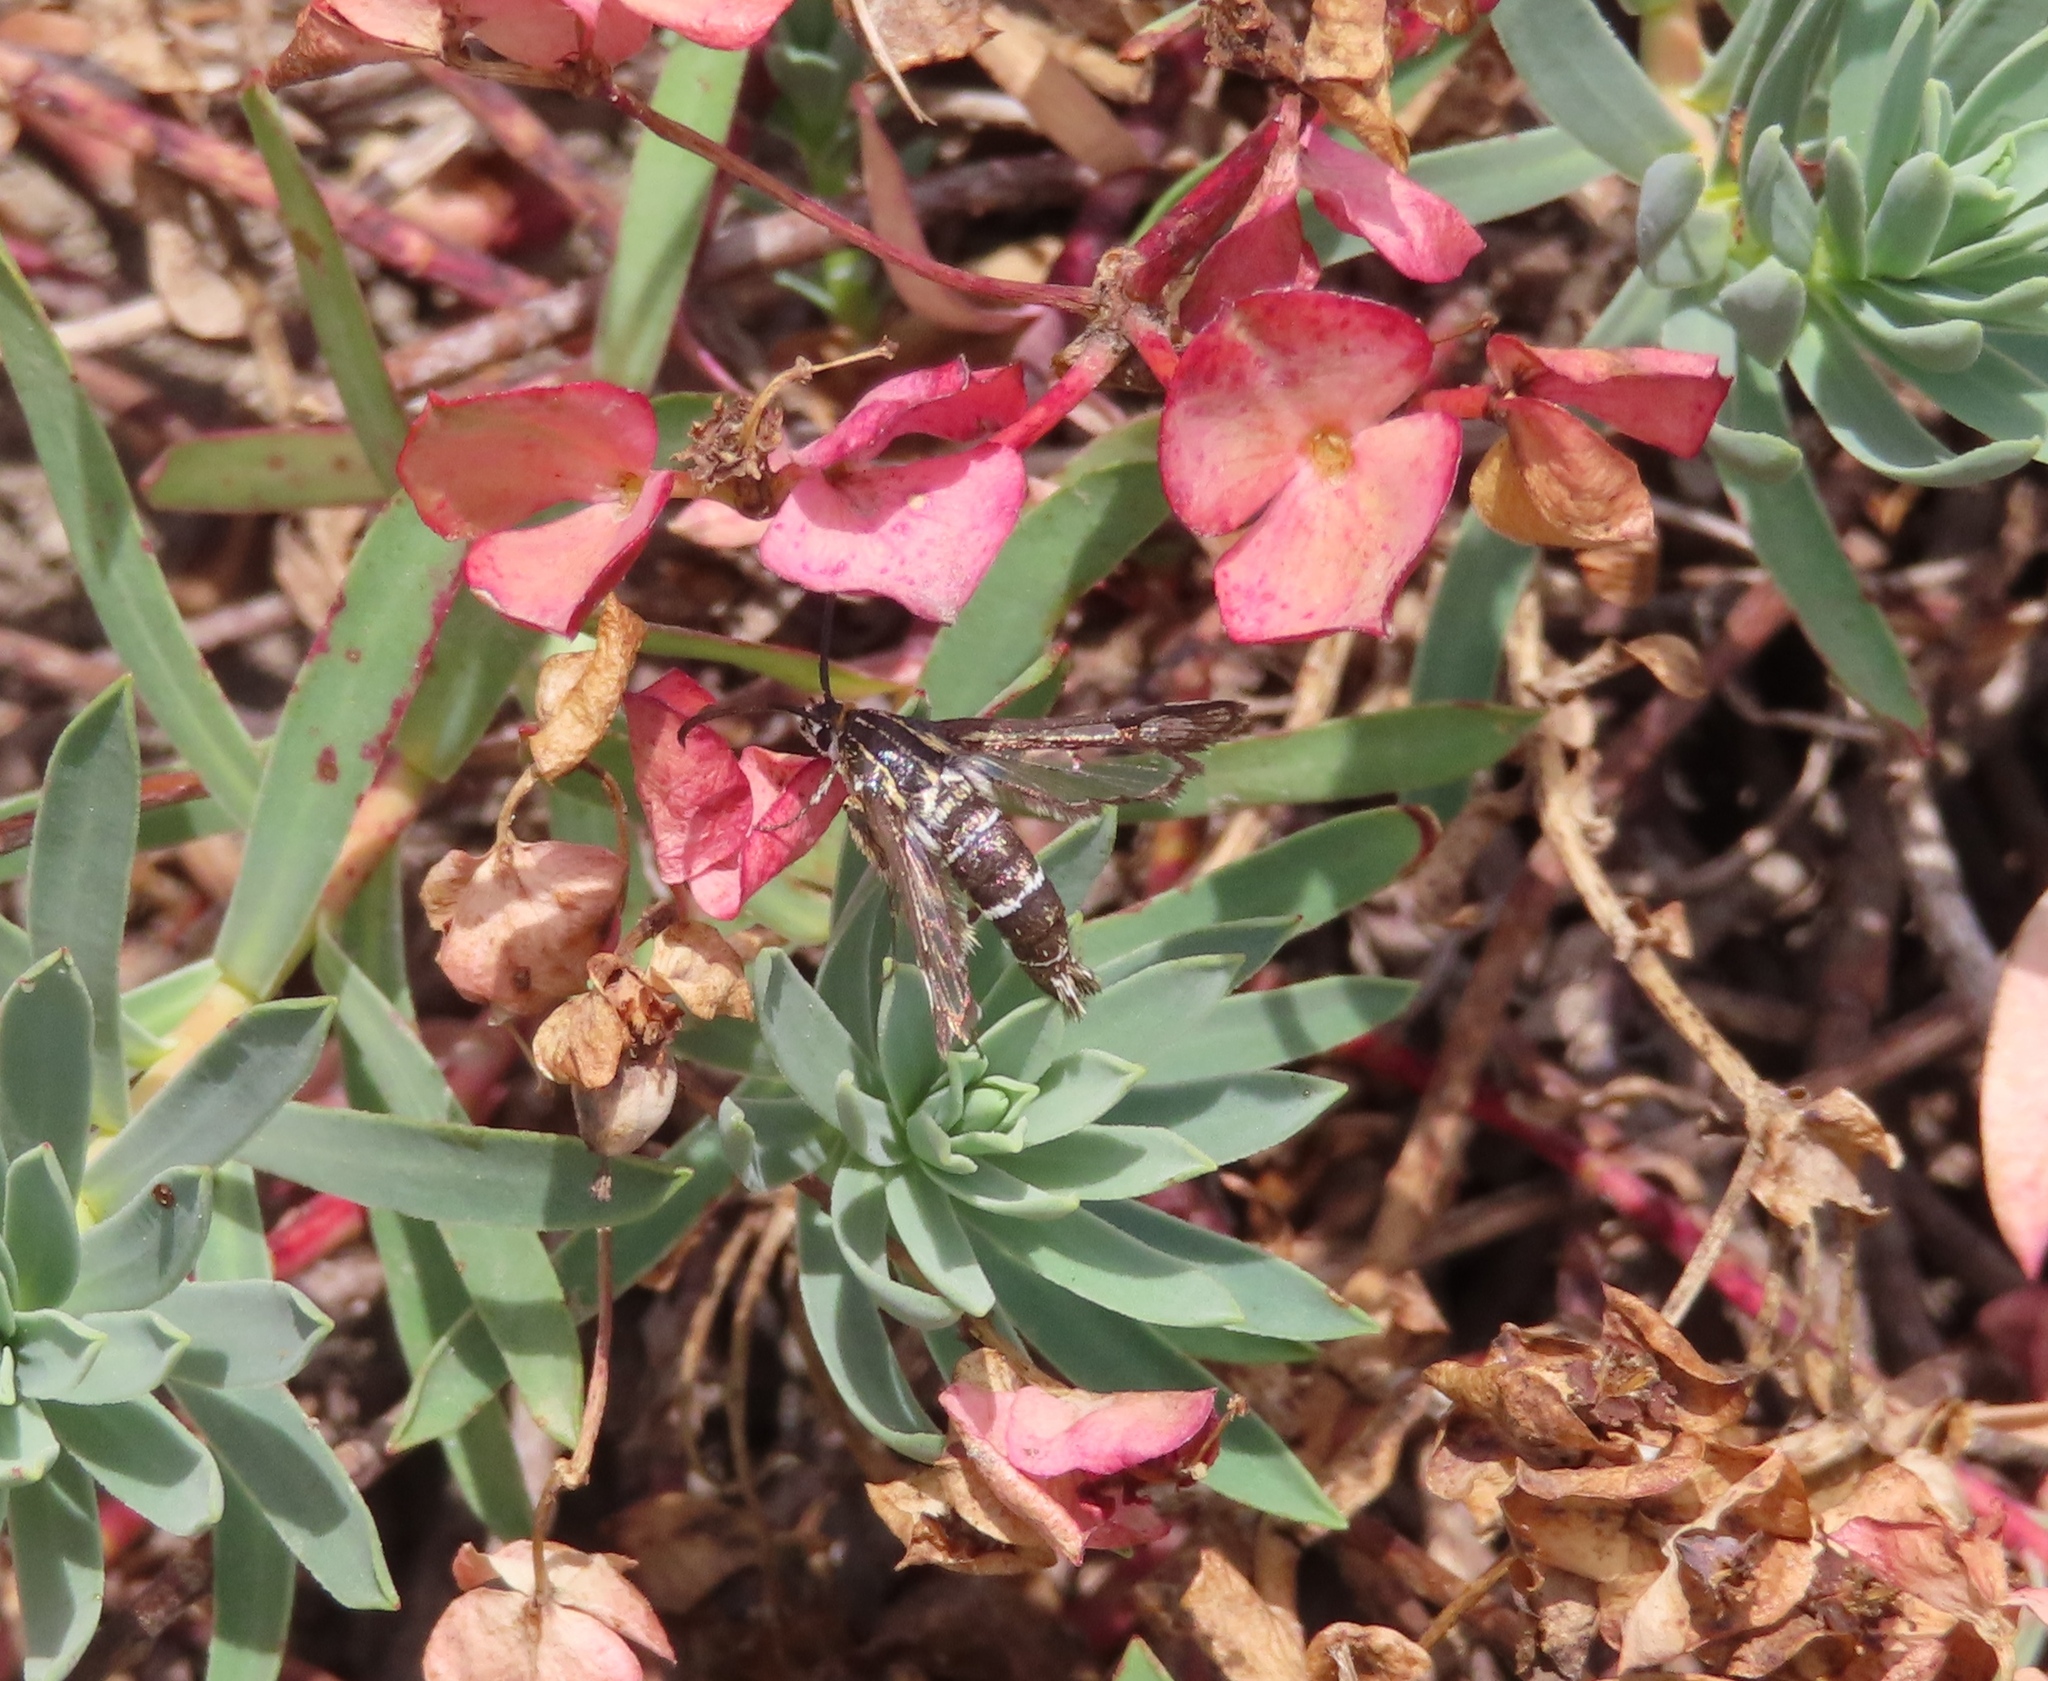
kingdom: Animalia
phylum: Arthropoda
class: Insecta
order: Lepidoptera
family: Sesiidae
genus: Chamaesphecia
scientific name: Chamaesphecia bibioniformis
